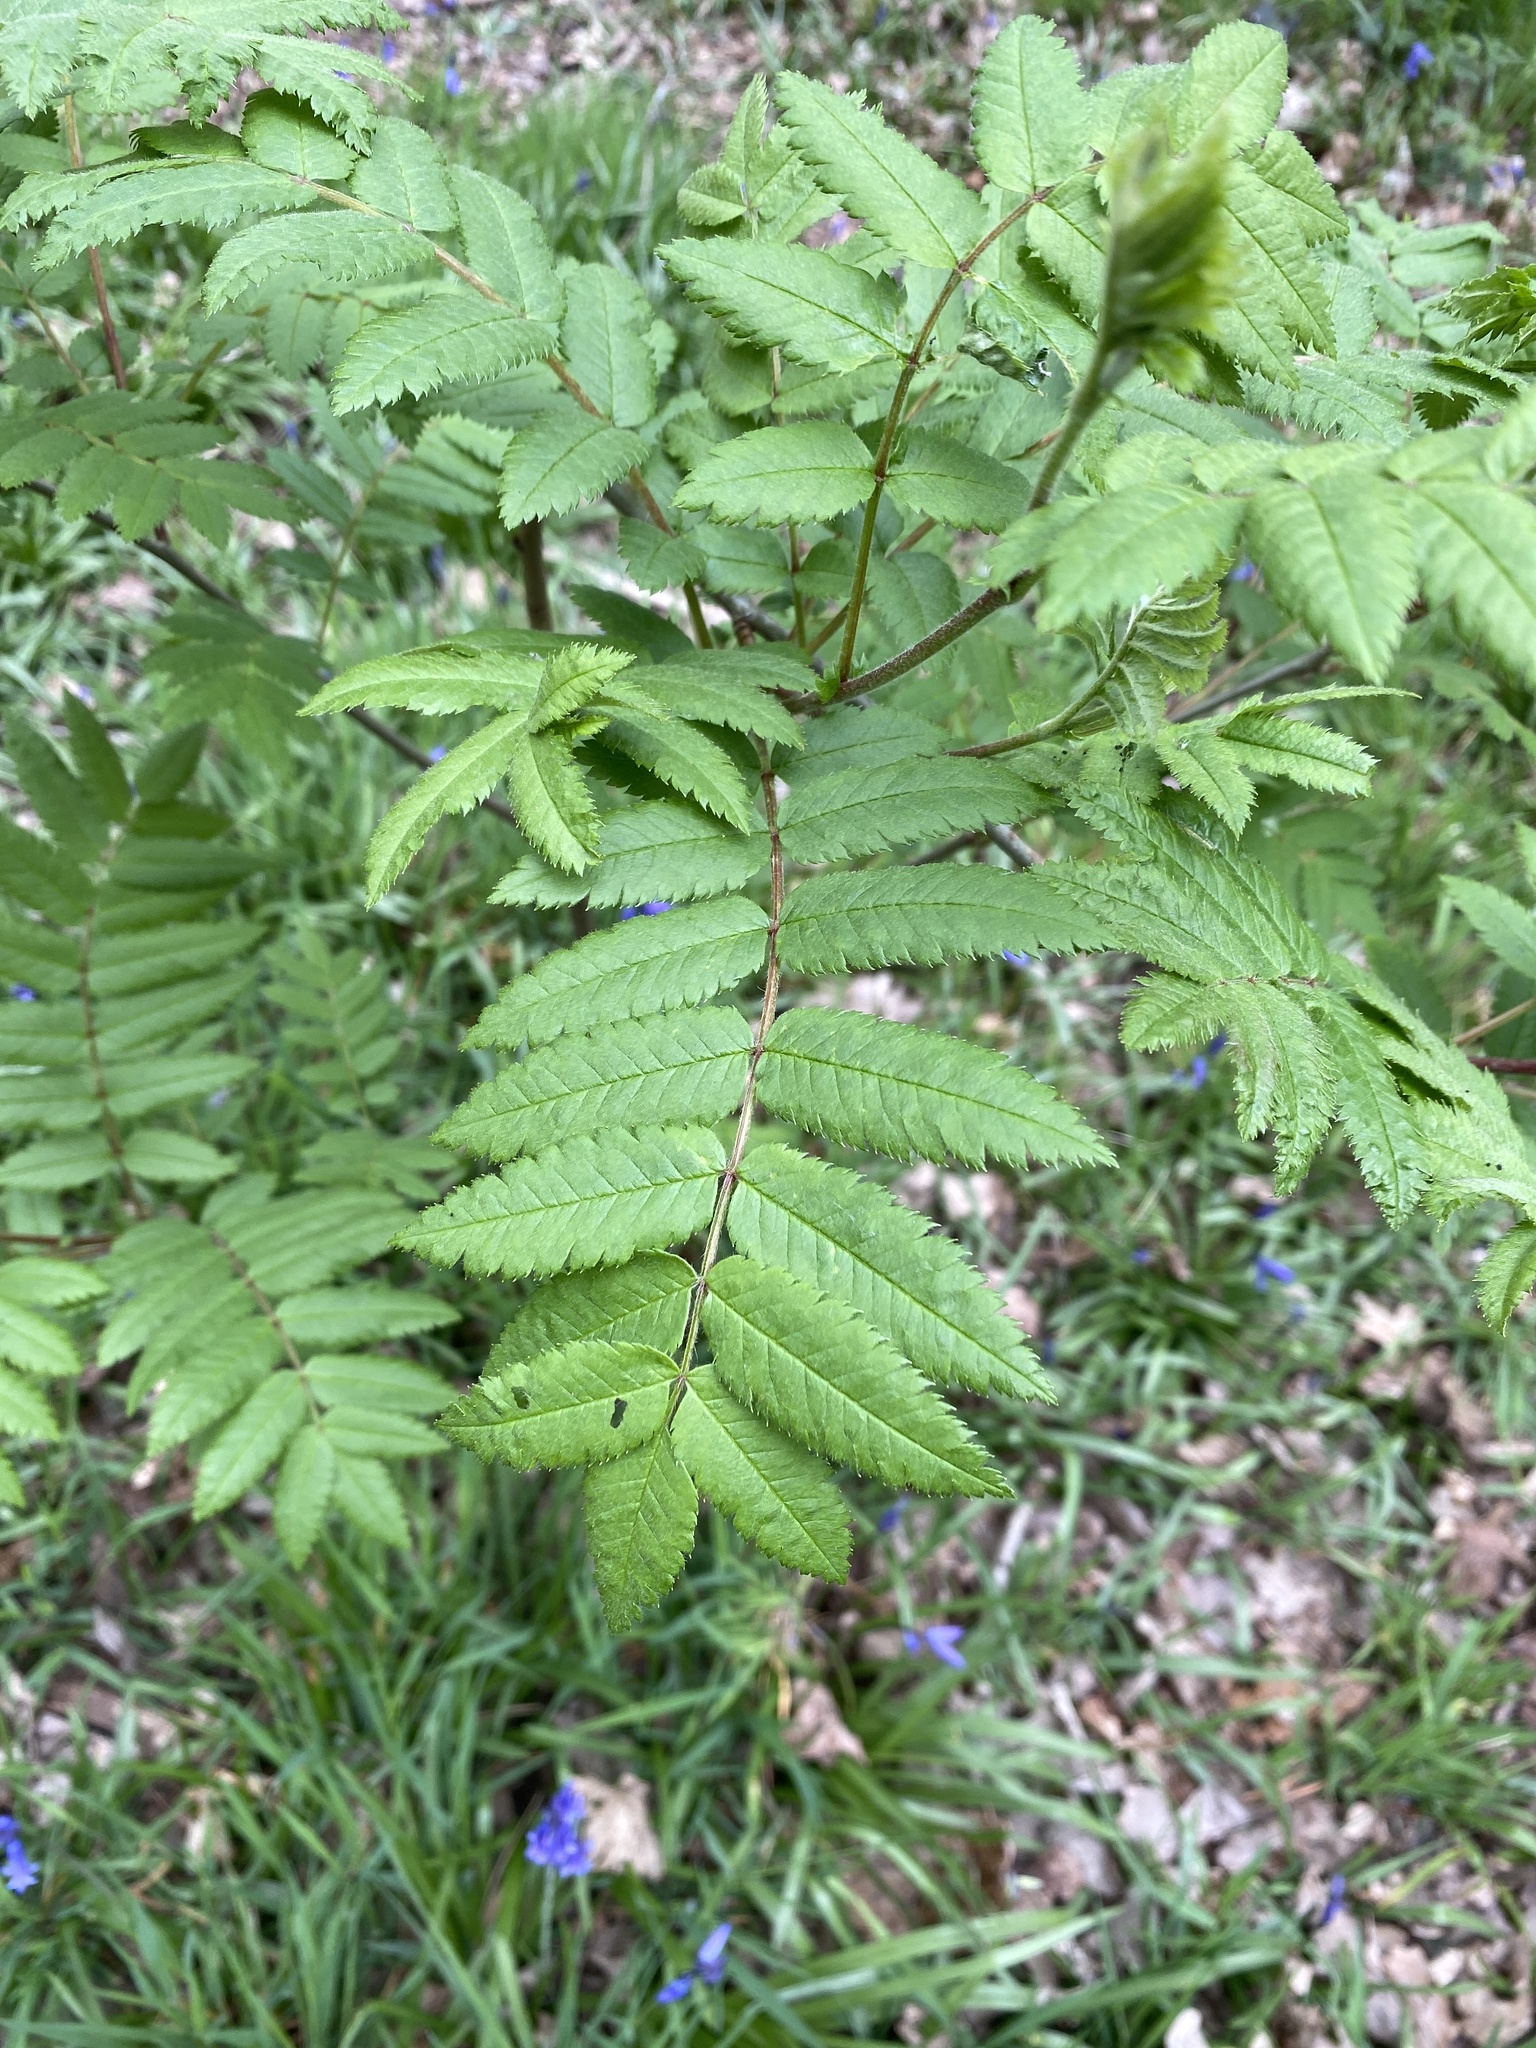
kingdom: Plantae
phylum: Tracheophyta
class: Magnoliopsida
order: Rosales
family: Rosaceae
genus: Sorbus
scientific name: Sorbus aucuparia
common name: Rowan
